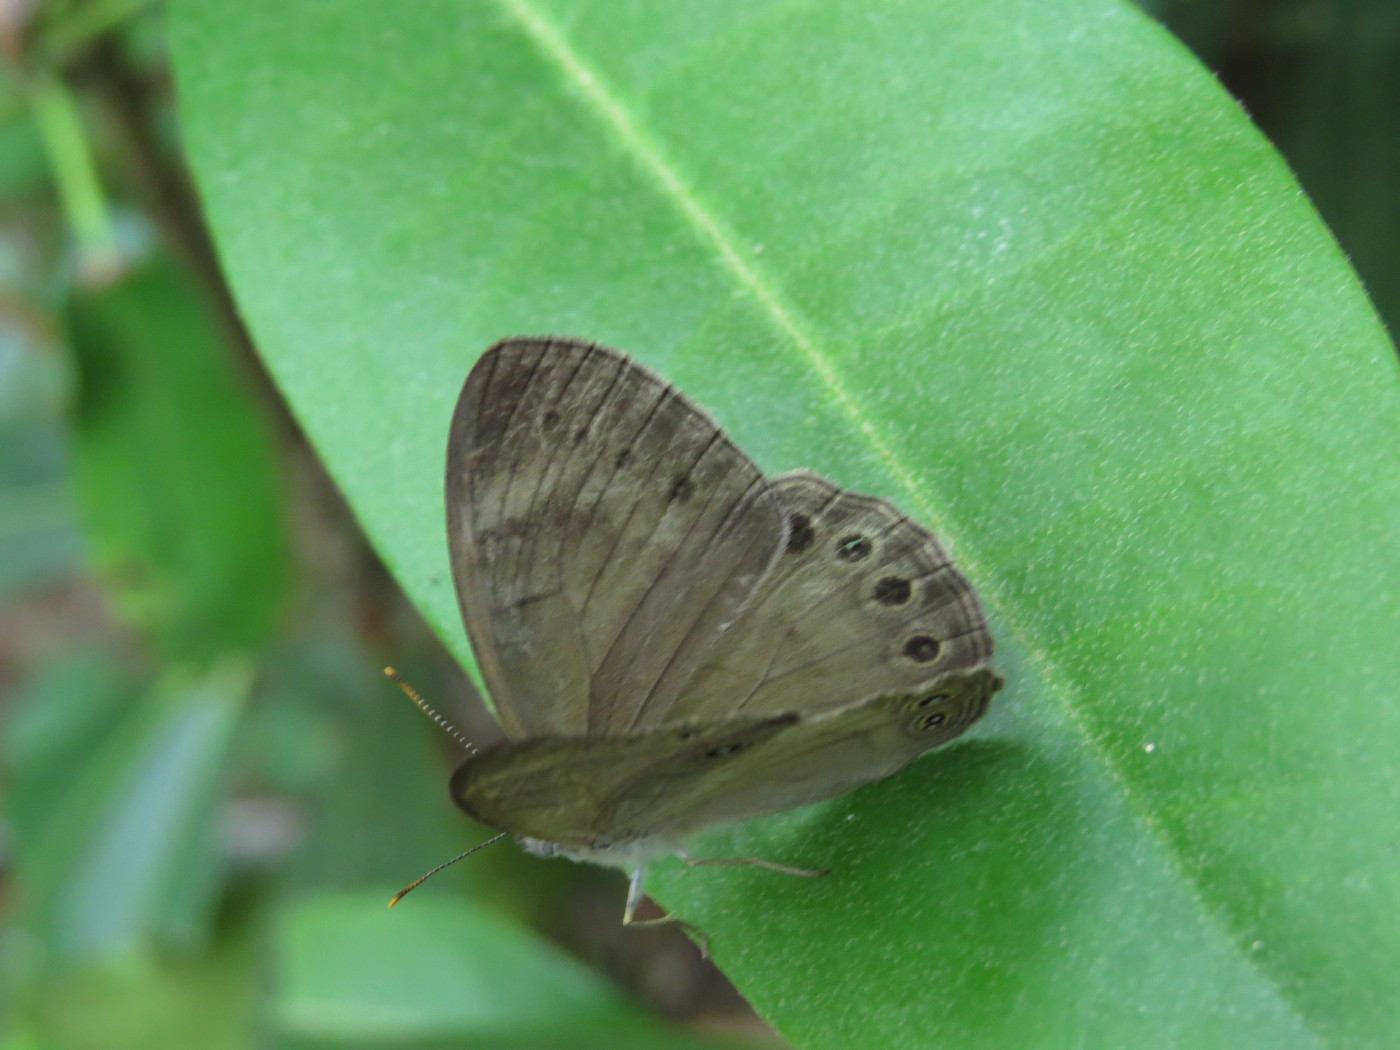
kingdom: Animalia
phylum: Arthropoda
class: Insecta
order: Lepidoptera
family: Nymphalidae
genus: Lethe
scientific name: Lethe eurydice
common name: Eyed brown
